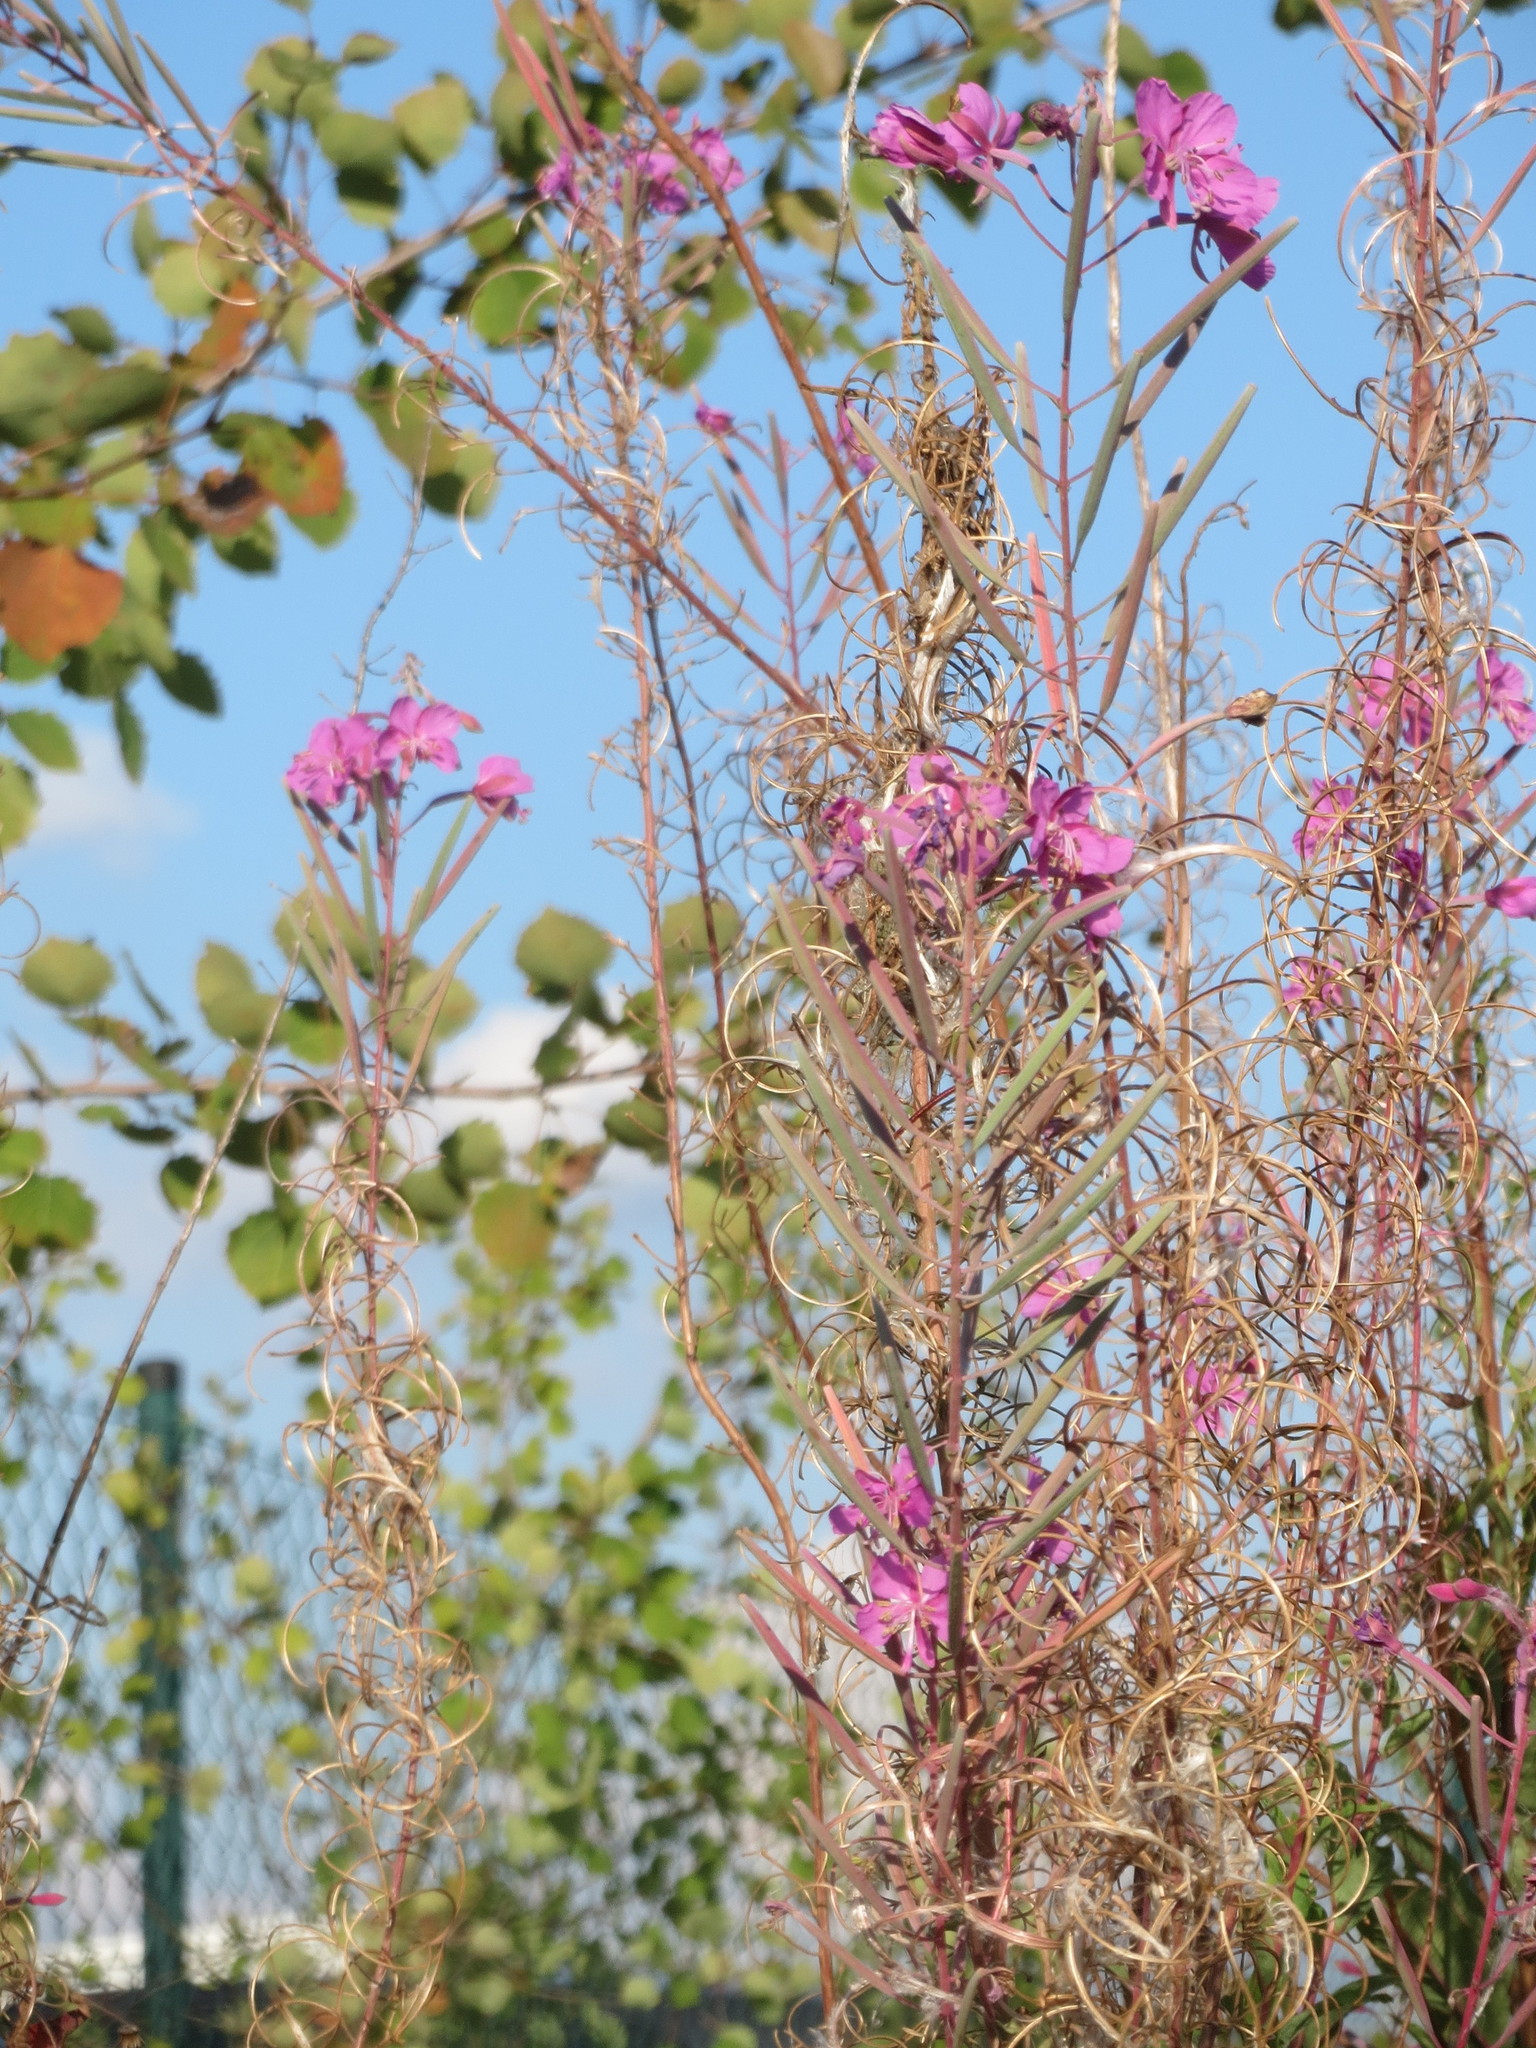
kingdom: Plantae
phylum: Tracheophyta
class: Magnoliopsida
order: Myrtales
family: Onagraceae
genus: Chamaenerion
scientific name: Chamaenerion angustifolium
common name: Fireweed
